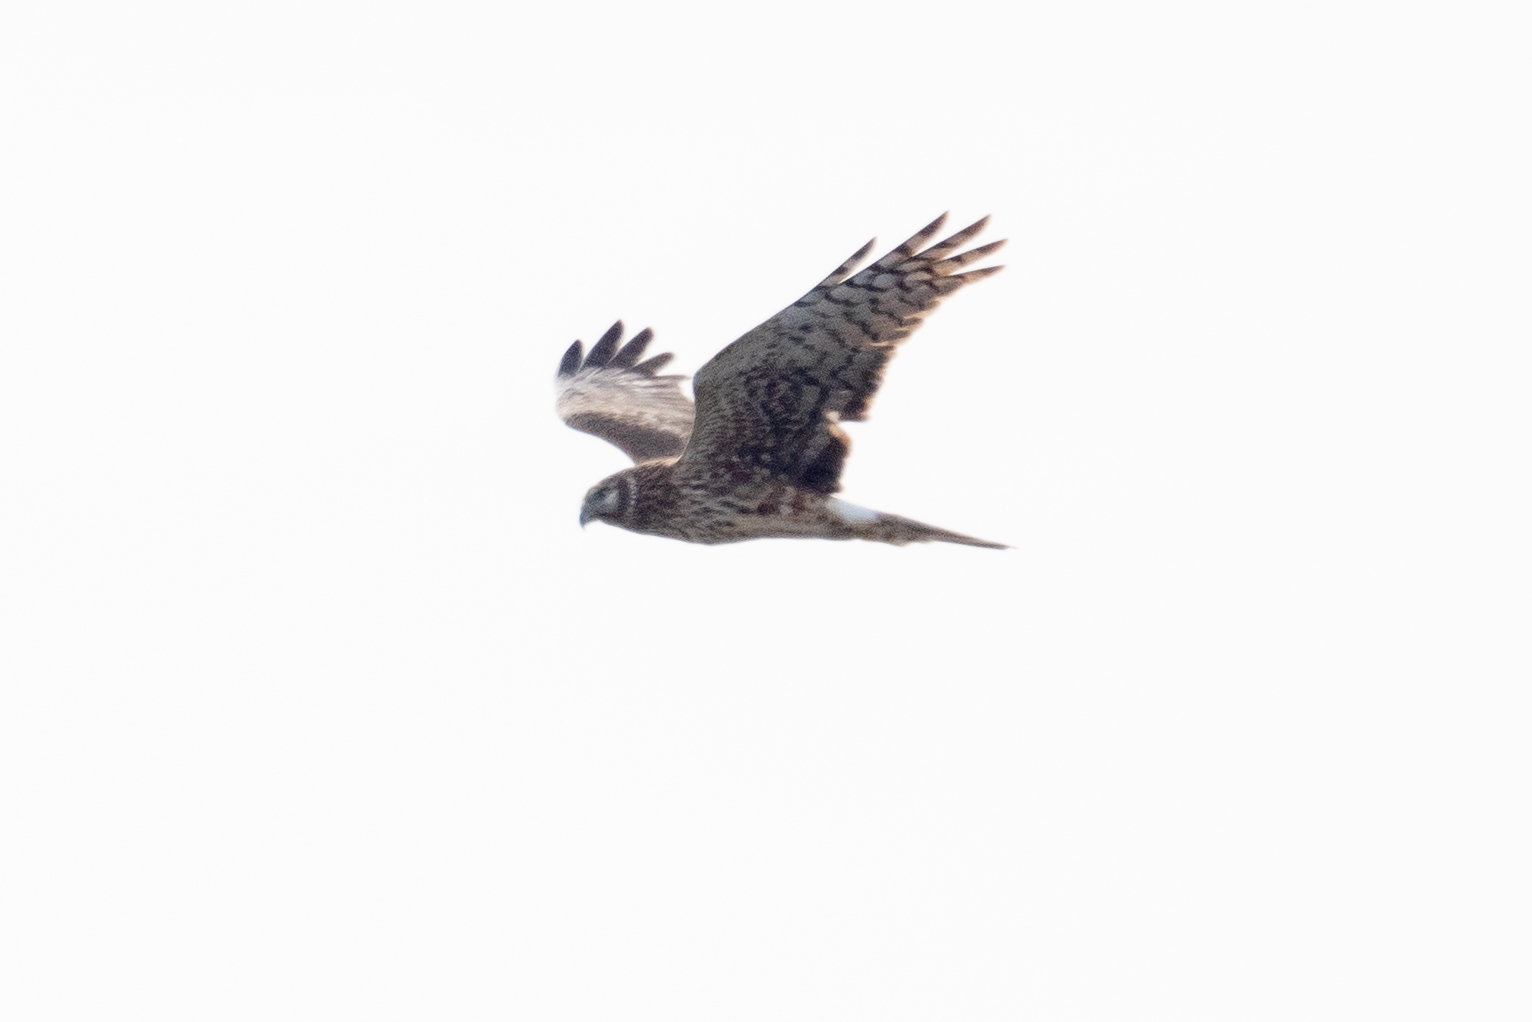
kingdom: Animalia
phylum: Chordata
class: Aves
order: Accipitriformes
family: Accipitridae
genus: Circus
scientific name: Circus cyaneus
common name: Hen harrier
